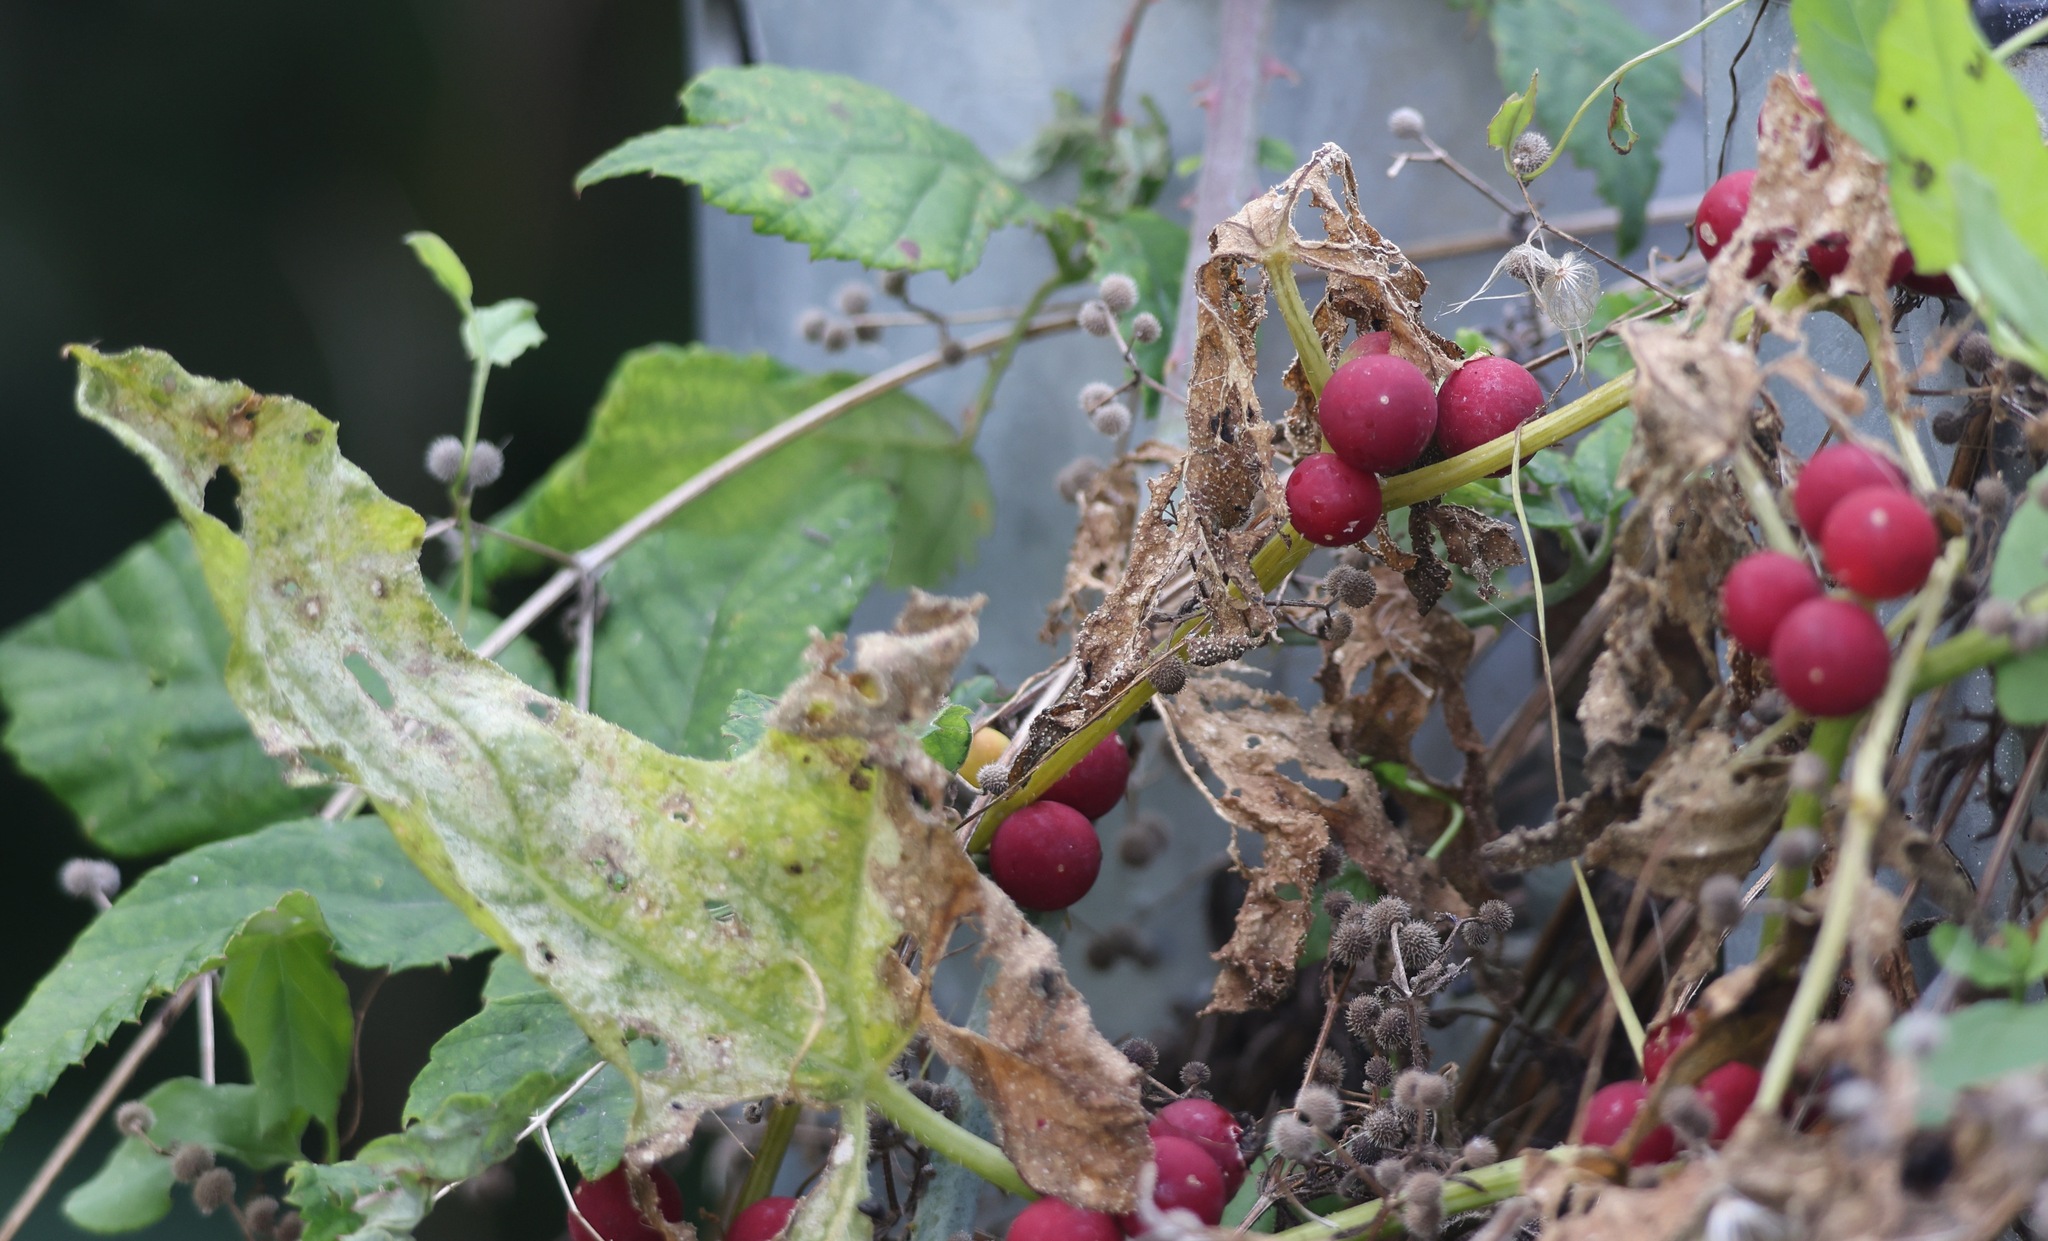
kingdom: Plantae
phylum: Tracheophyta
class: Magnoliopsida
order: Cucurbitales
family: Cucurbitaceae
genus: Bryonia
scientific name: Bryonia cretica
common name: Cretan bryony
